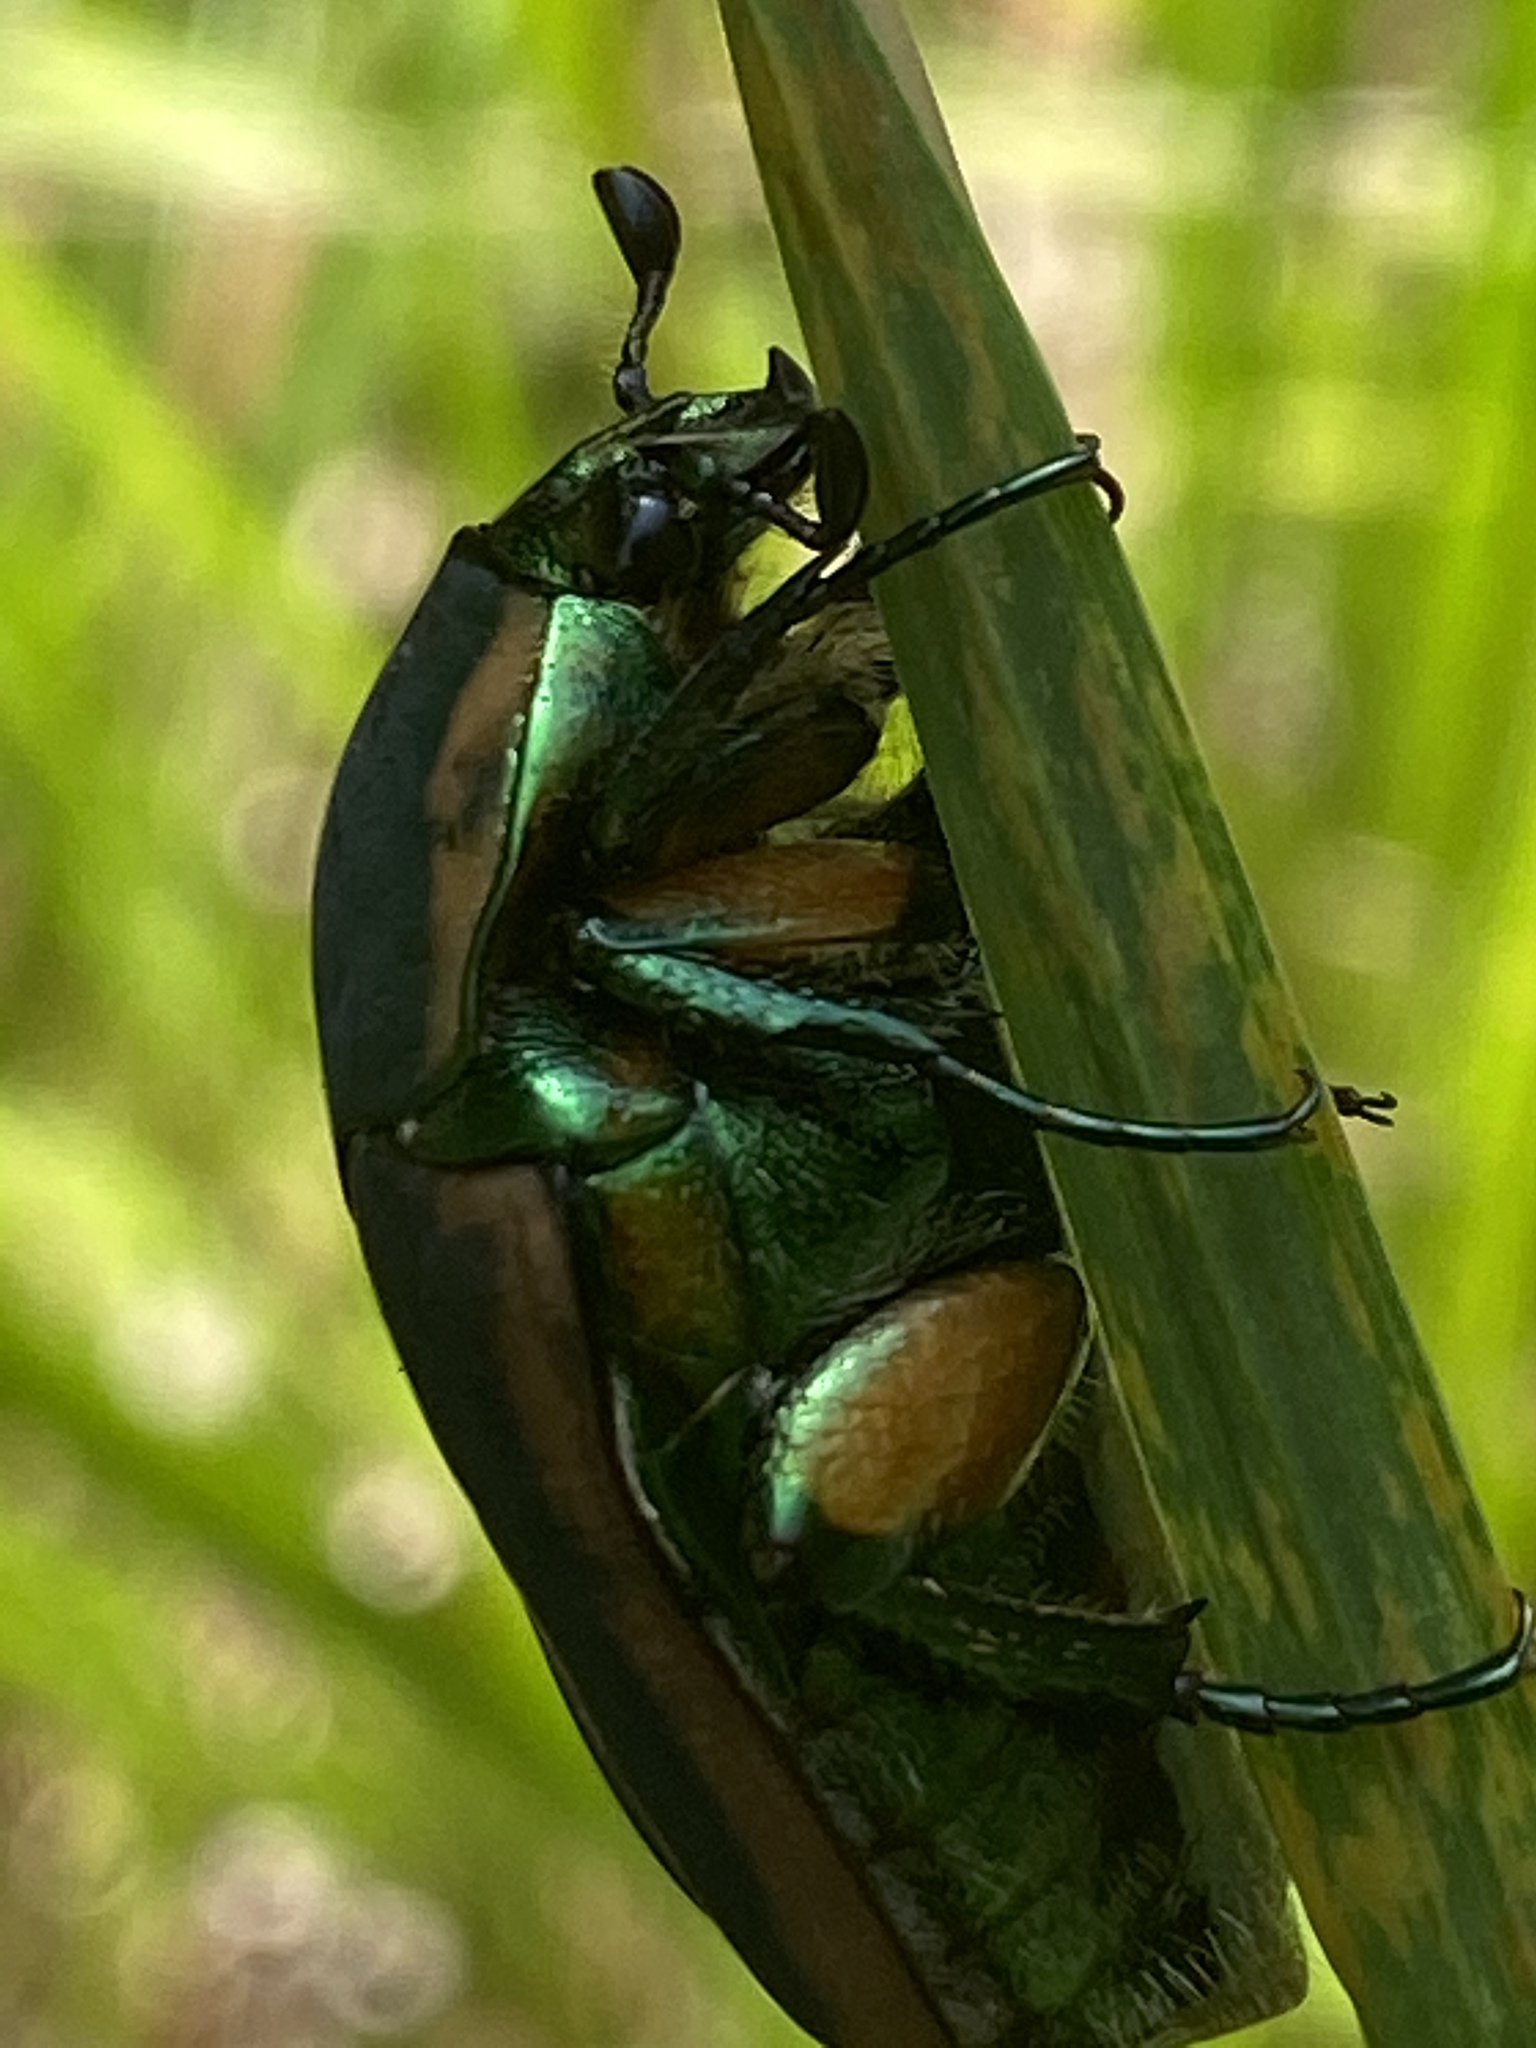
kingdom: Animalia
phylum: Arthropoda
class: Insecta
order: Coleoptera
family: Scarabaeidae
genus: Cotinis
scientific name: Cotinis nitida
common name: Common green june beetle
